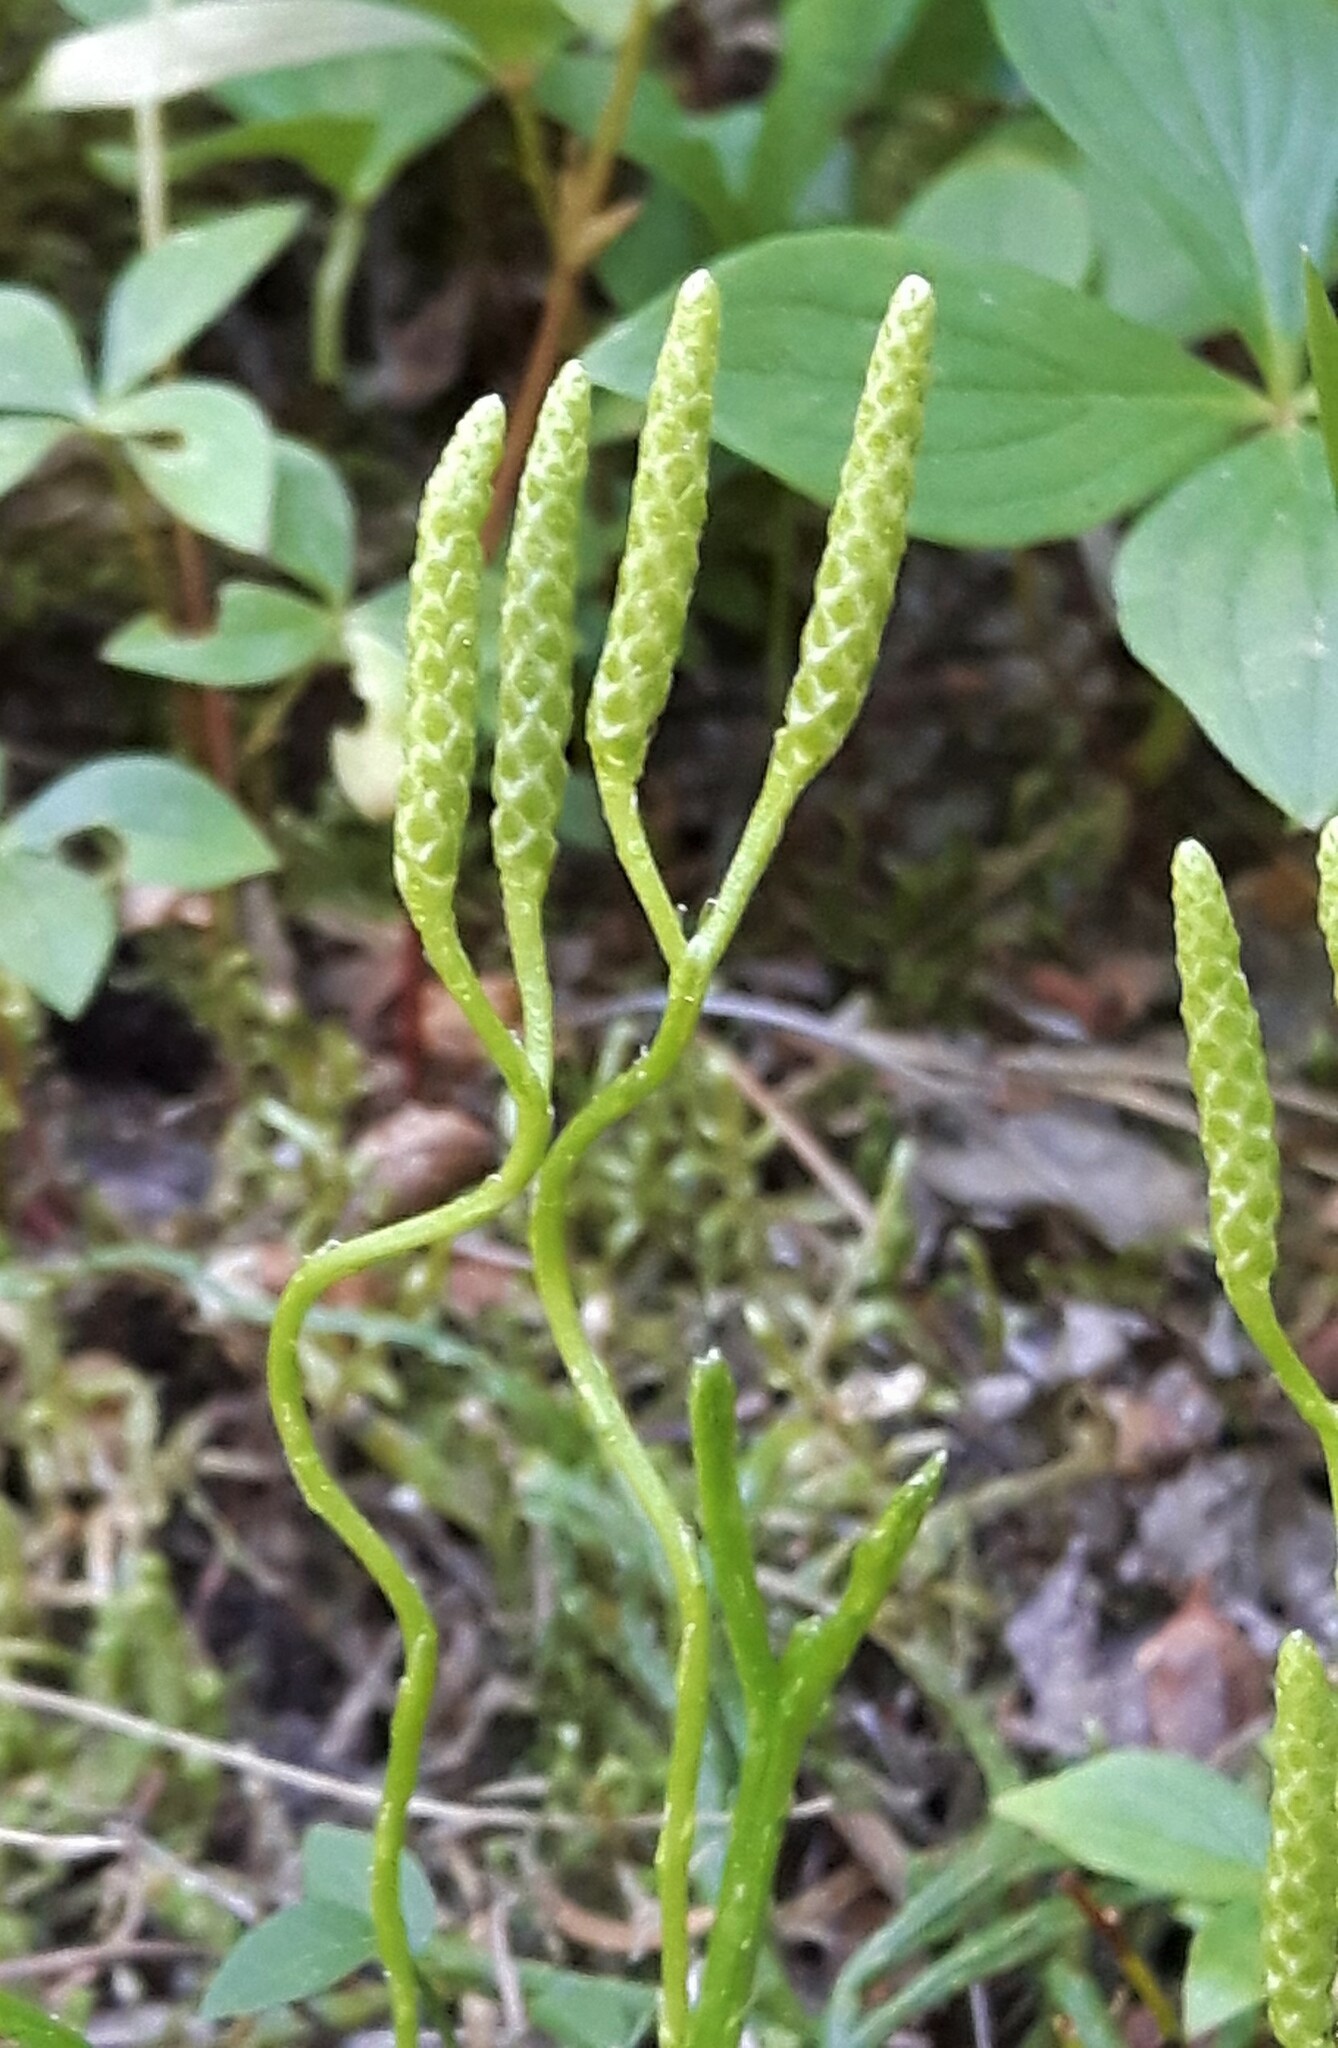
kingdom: Plantae
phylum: Tracheophyta
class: Lycopodiopsida
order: Lycopodiales
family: Lycopodiaceae
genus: Diphasiastrum
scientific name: Diphasiastrum complanatum
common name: Northern running-pine
